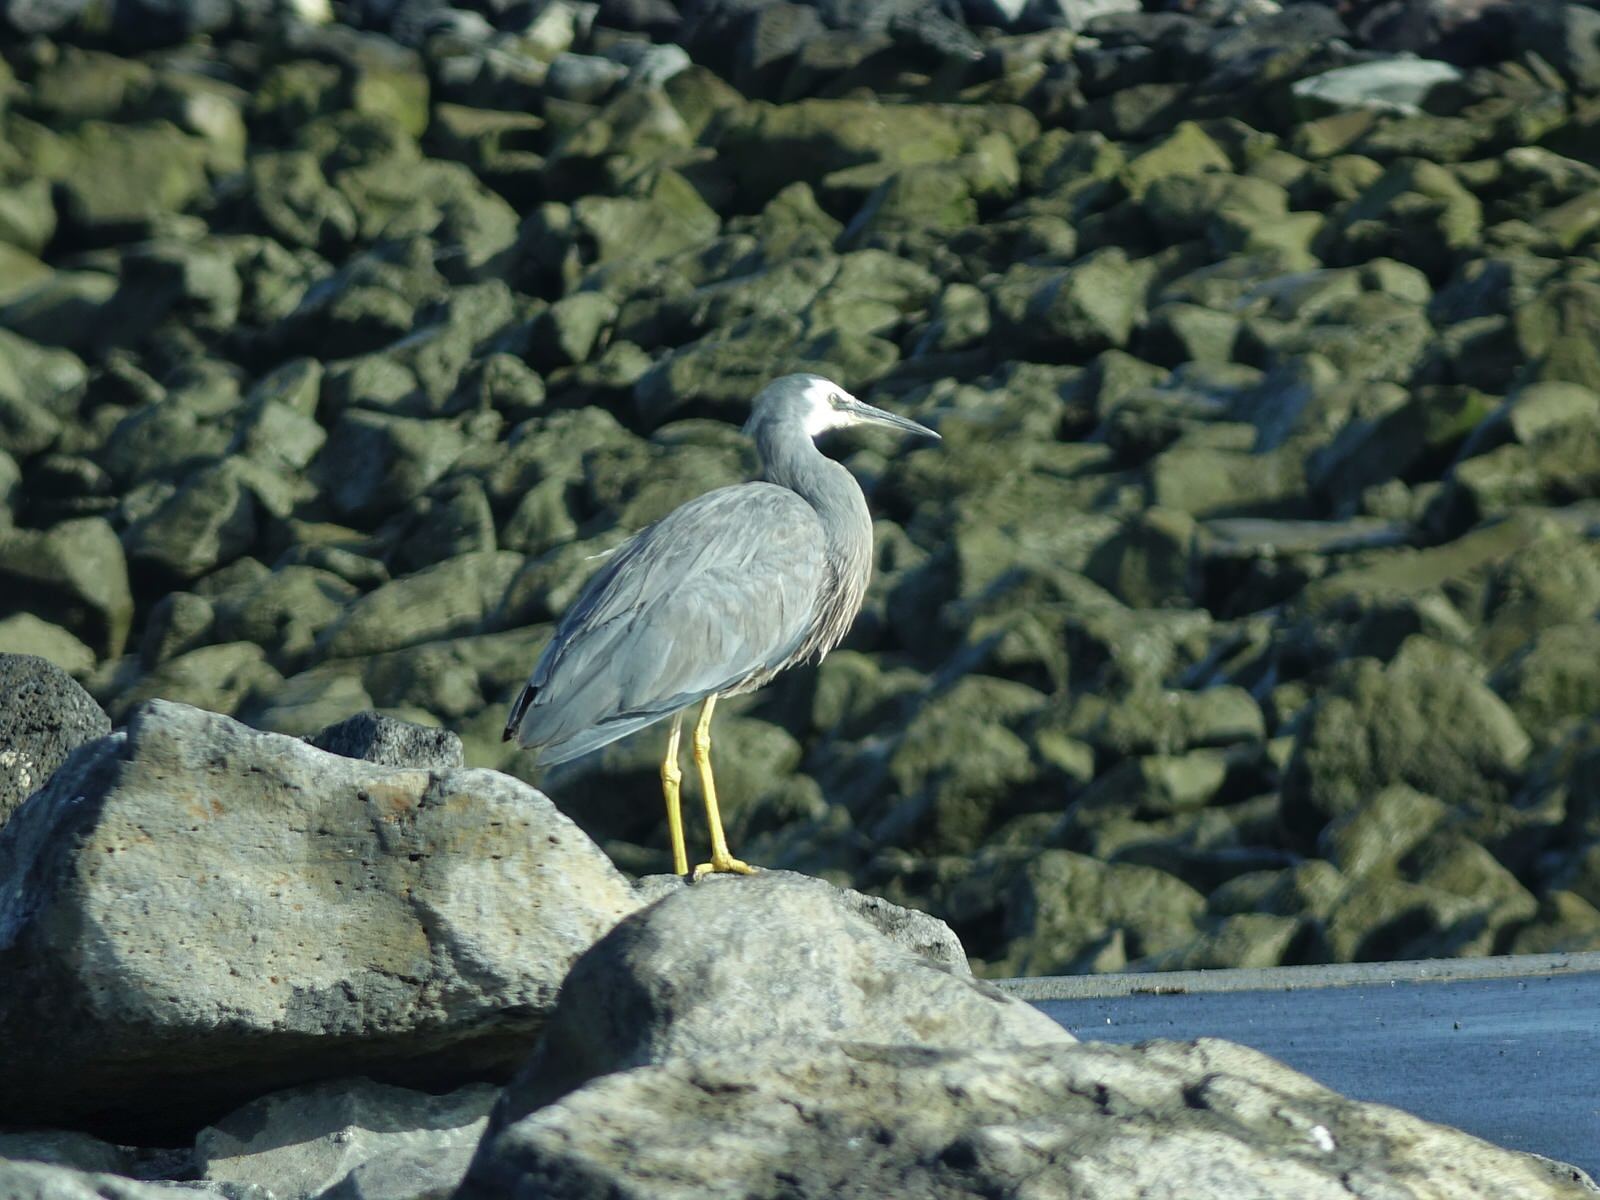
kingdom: Animalia
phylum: Chordata
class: Aves
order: Pelecaniformes
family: Ardeidae
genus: Egretta
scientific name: Egretta novaehollandiae
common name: White-faced heron
